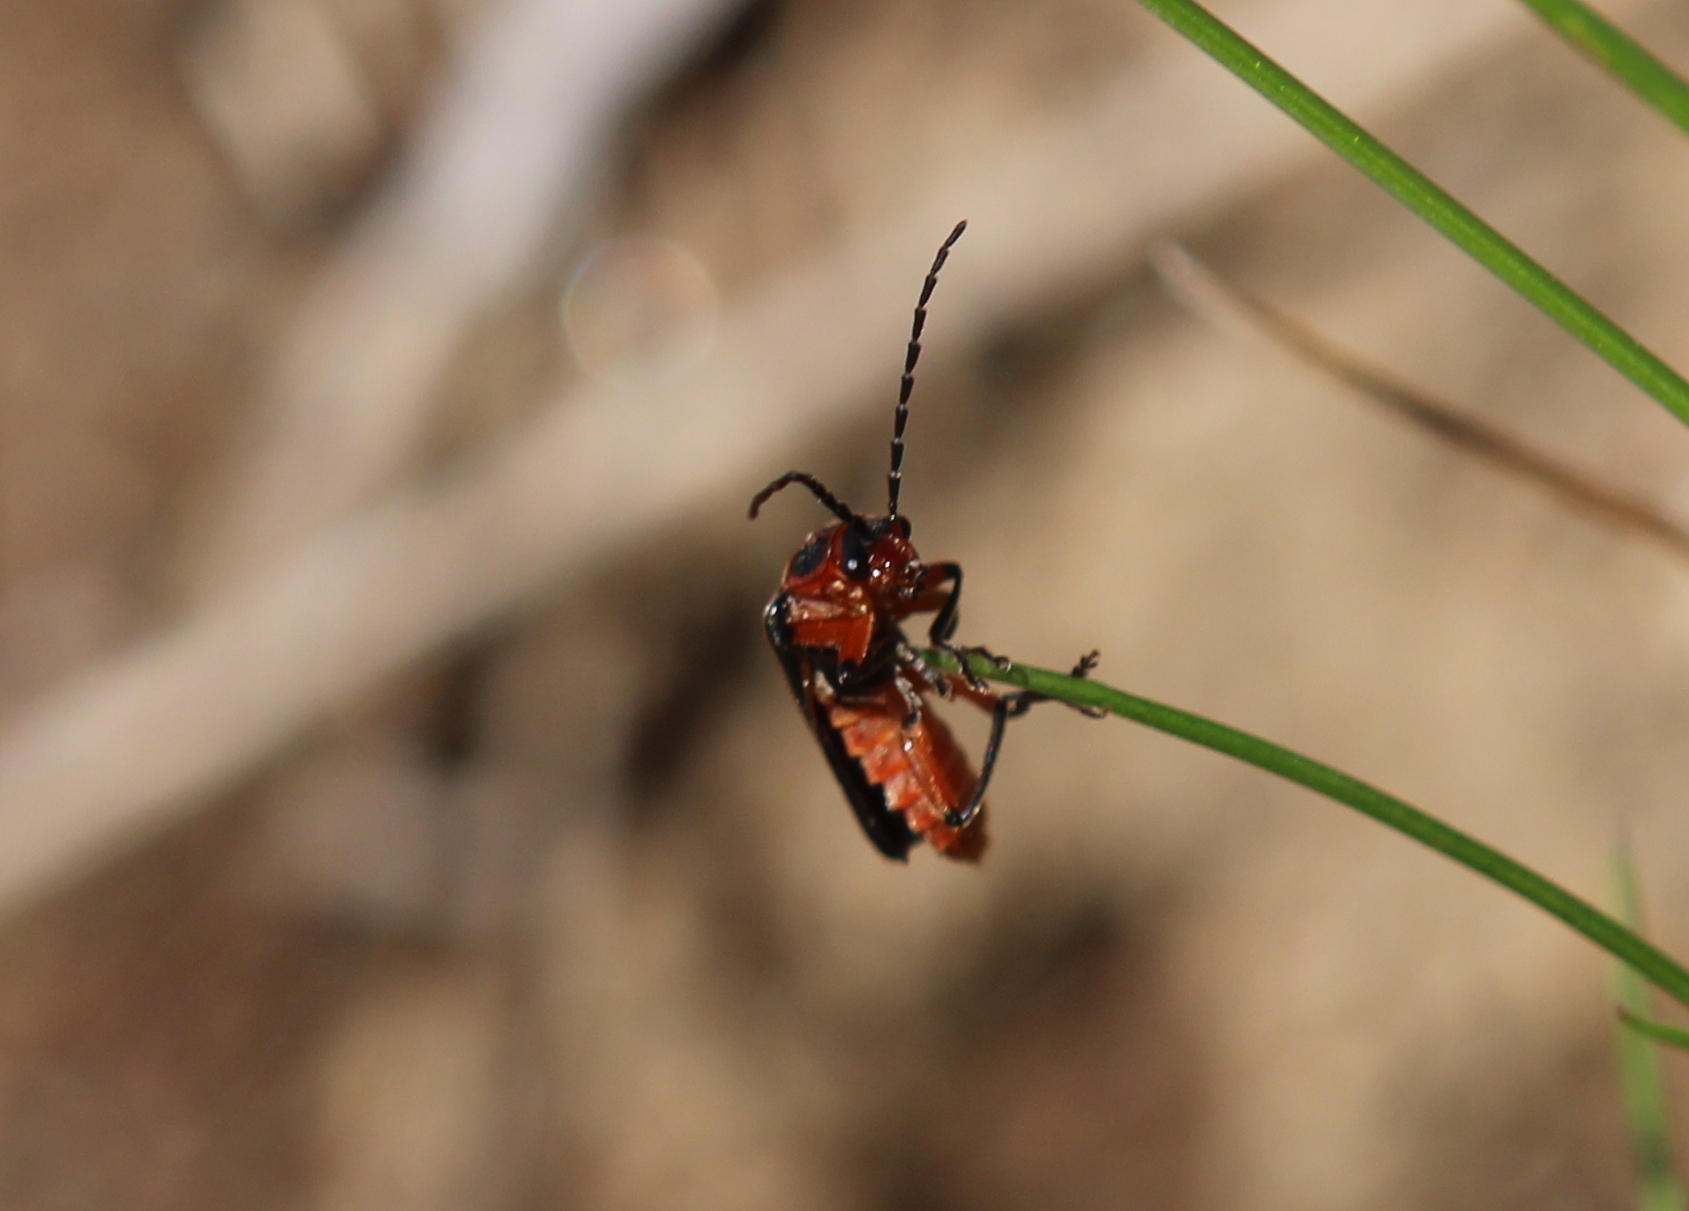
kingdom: Animalia
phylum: Arthropoda
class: Insecta
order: Coleoptera
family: Cantharidae
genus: Atalantycha
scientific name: Atalantycha bilineata
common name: Two-lined leatherwing
